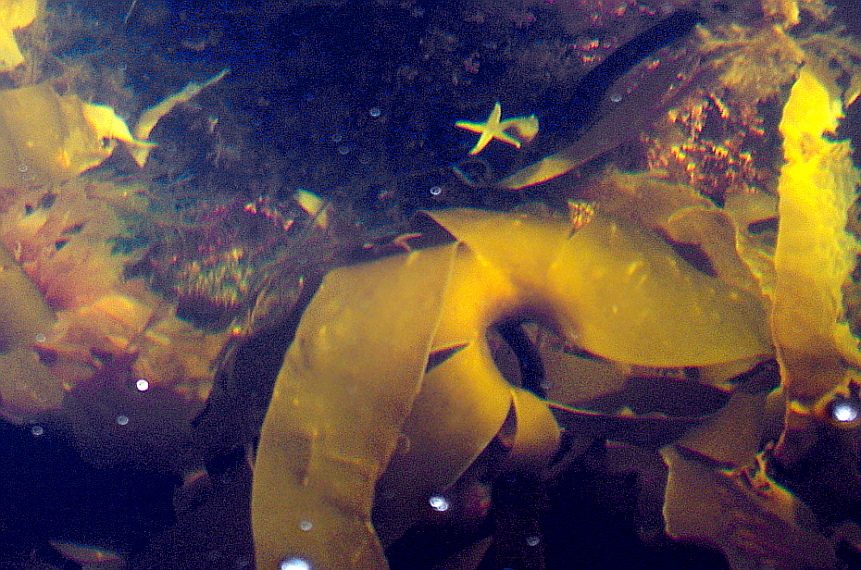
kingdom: Chromista
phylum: Ochrophyta
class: Phaeophyceae
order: Laminariales
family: Laminariaceae
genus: Laminaria
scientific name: Laminaria digitata
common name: Oarweed
